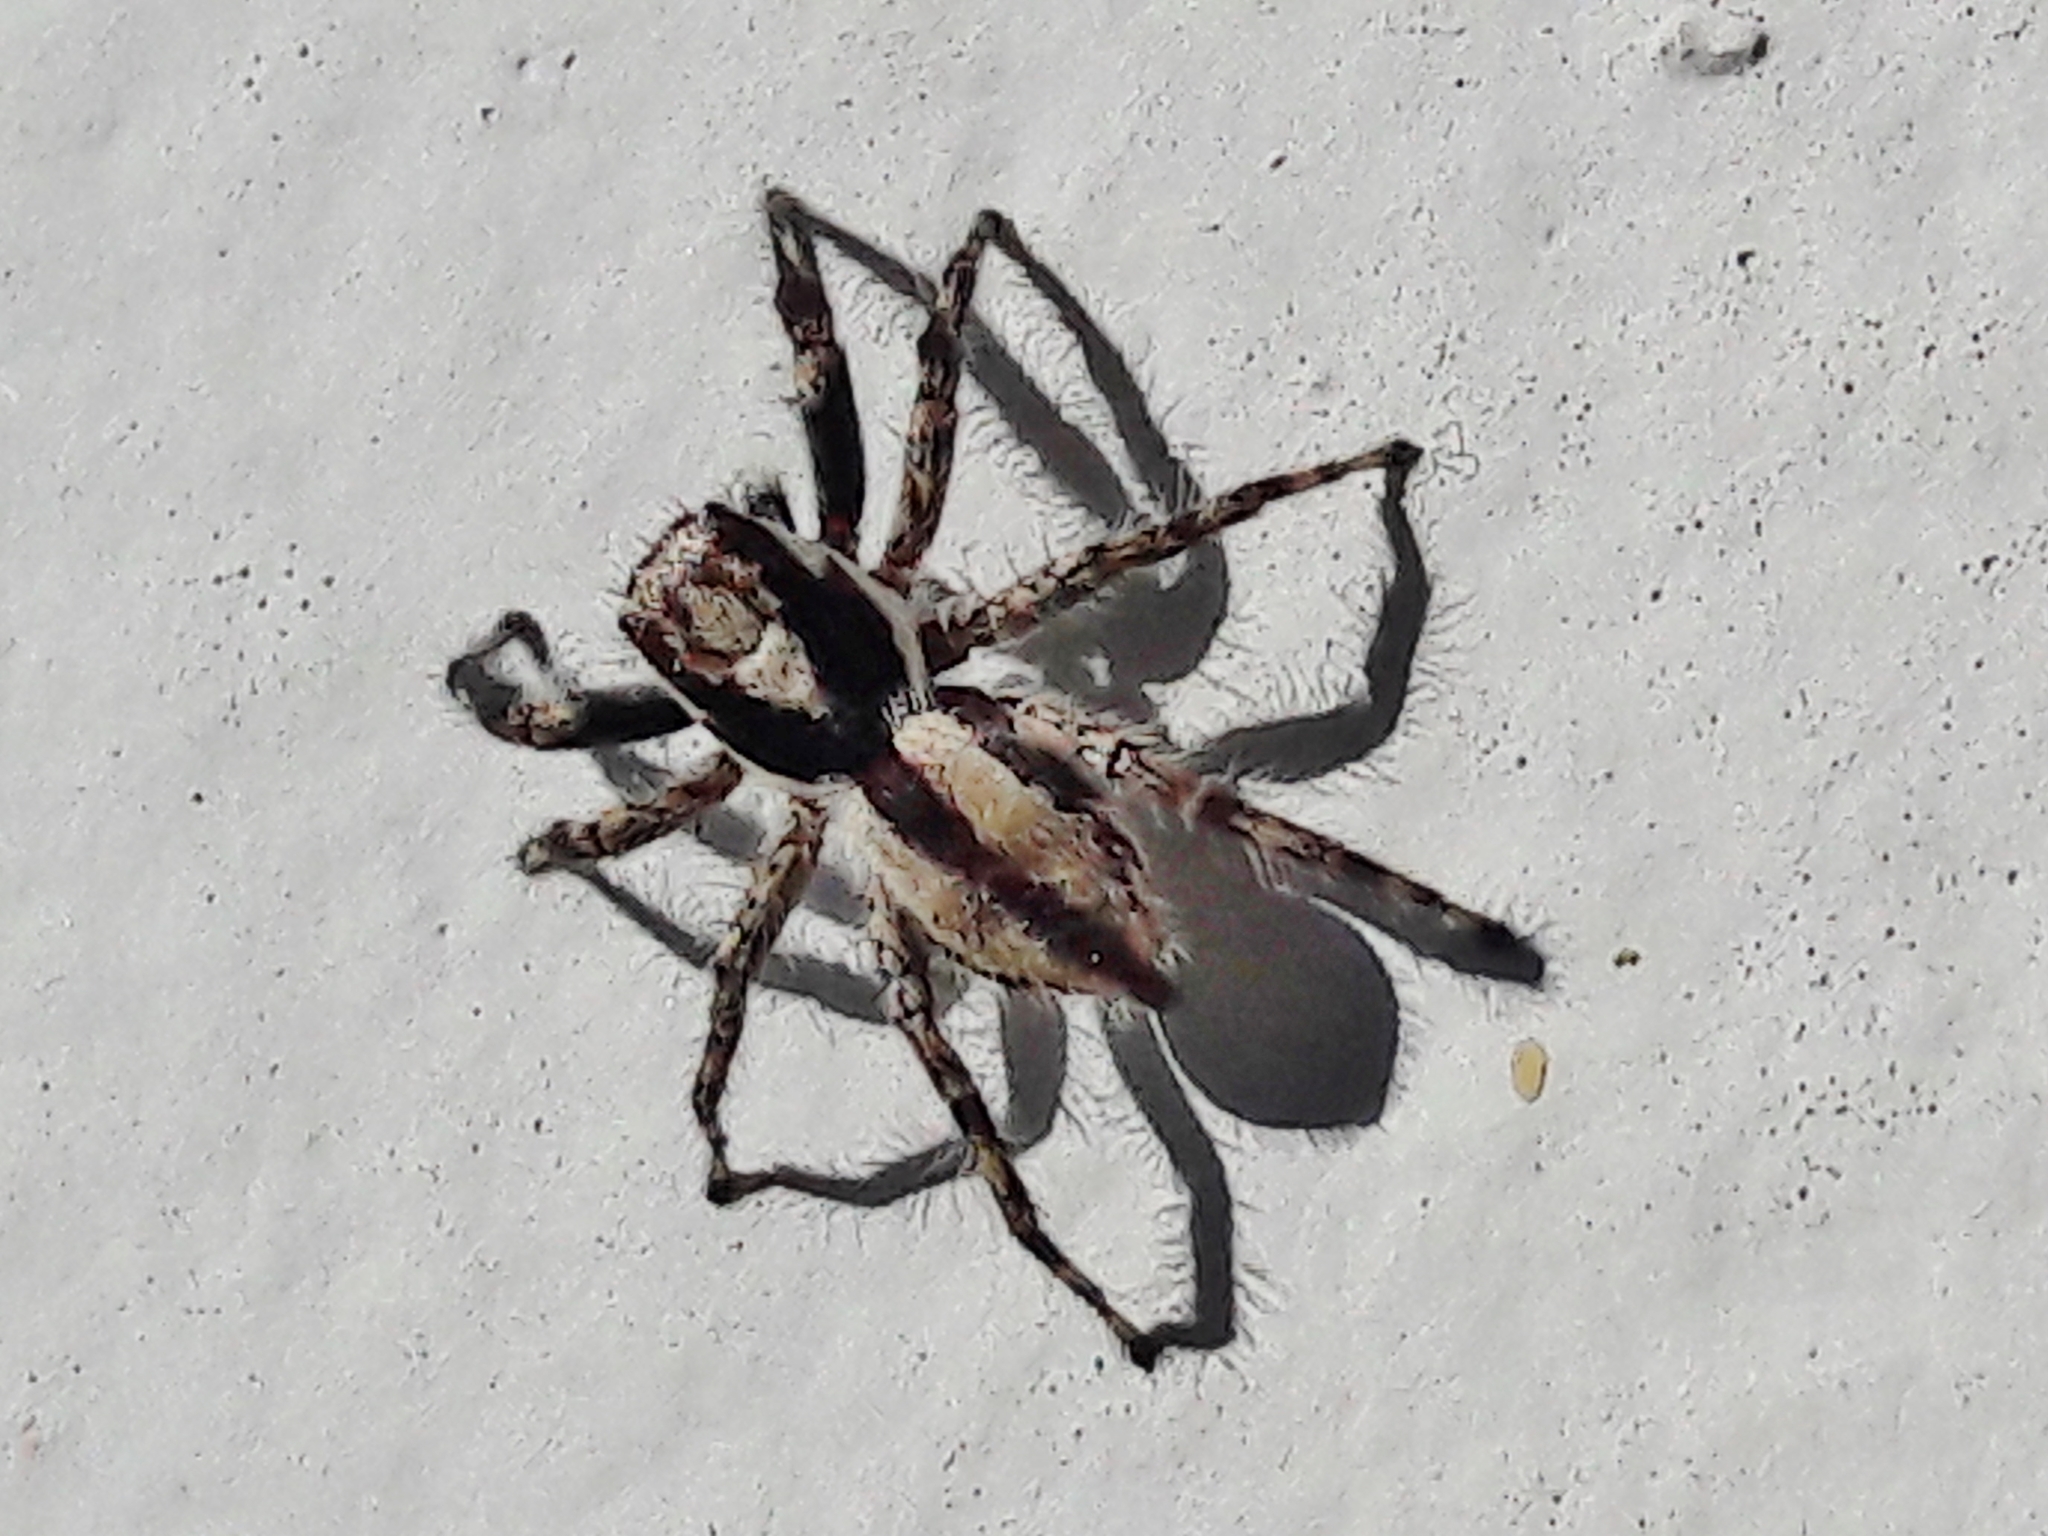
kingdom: Animalia
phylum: Arthropoda
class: Arachnida
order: Araneae
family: Salticidae
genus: Menemerus
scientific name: Menemerus bivittatus
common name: Gray wall jumper
